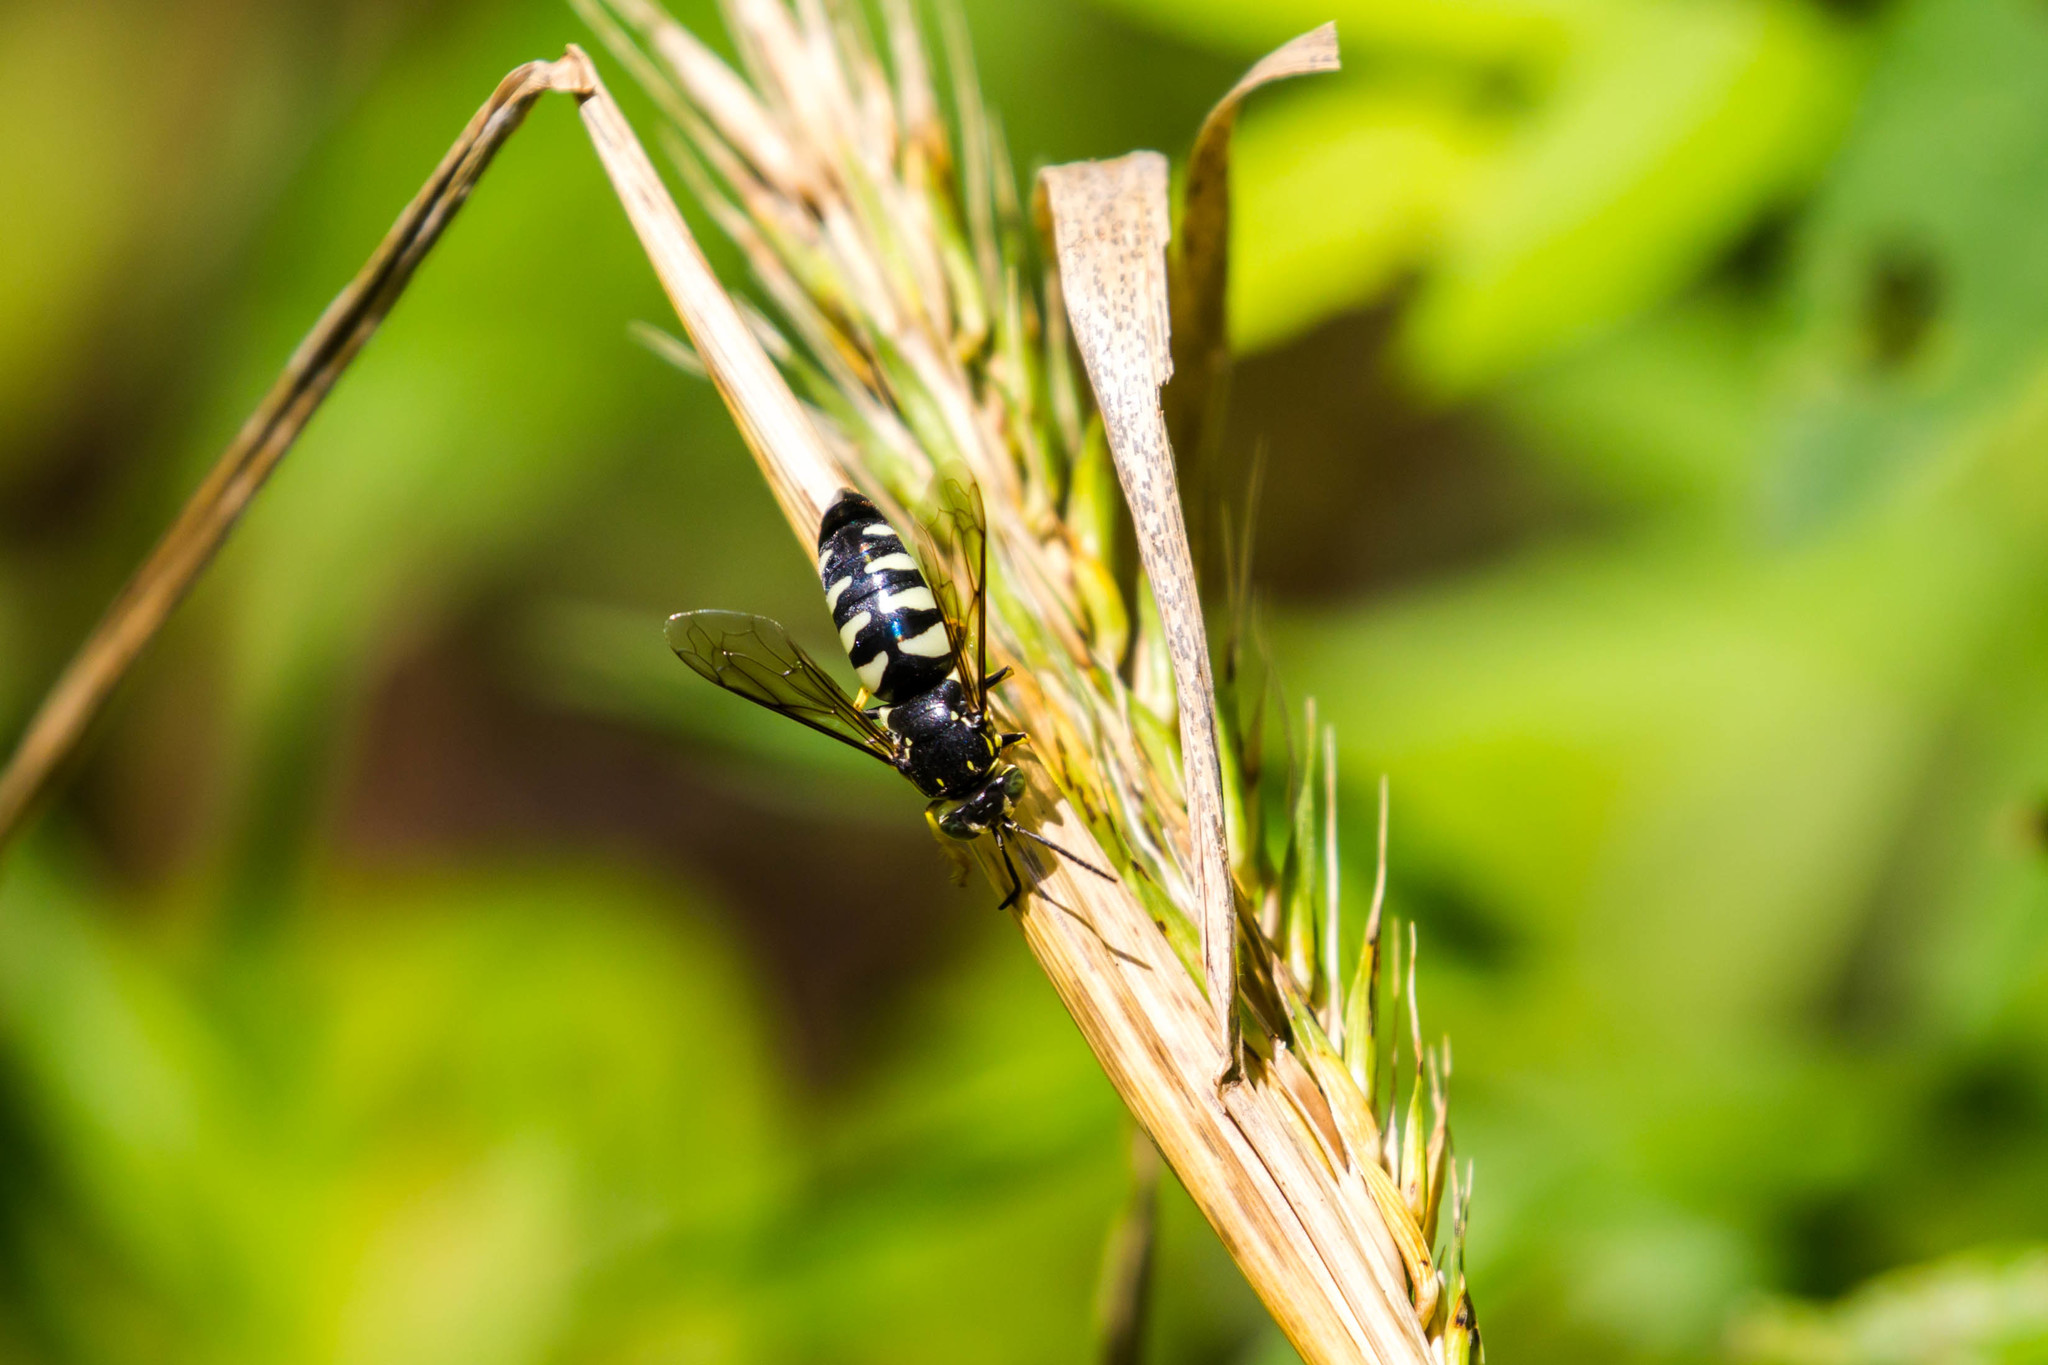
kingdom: Animalia
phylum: Arthropoda
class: Insecta
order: Hymenoptera
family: Crabronidae
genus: Bicyrtes
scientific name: Bicyrtes quadrifasciatus
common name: Four-banded stink bug hunter wasp
